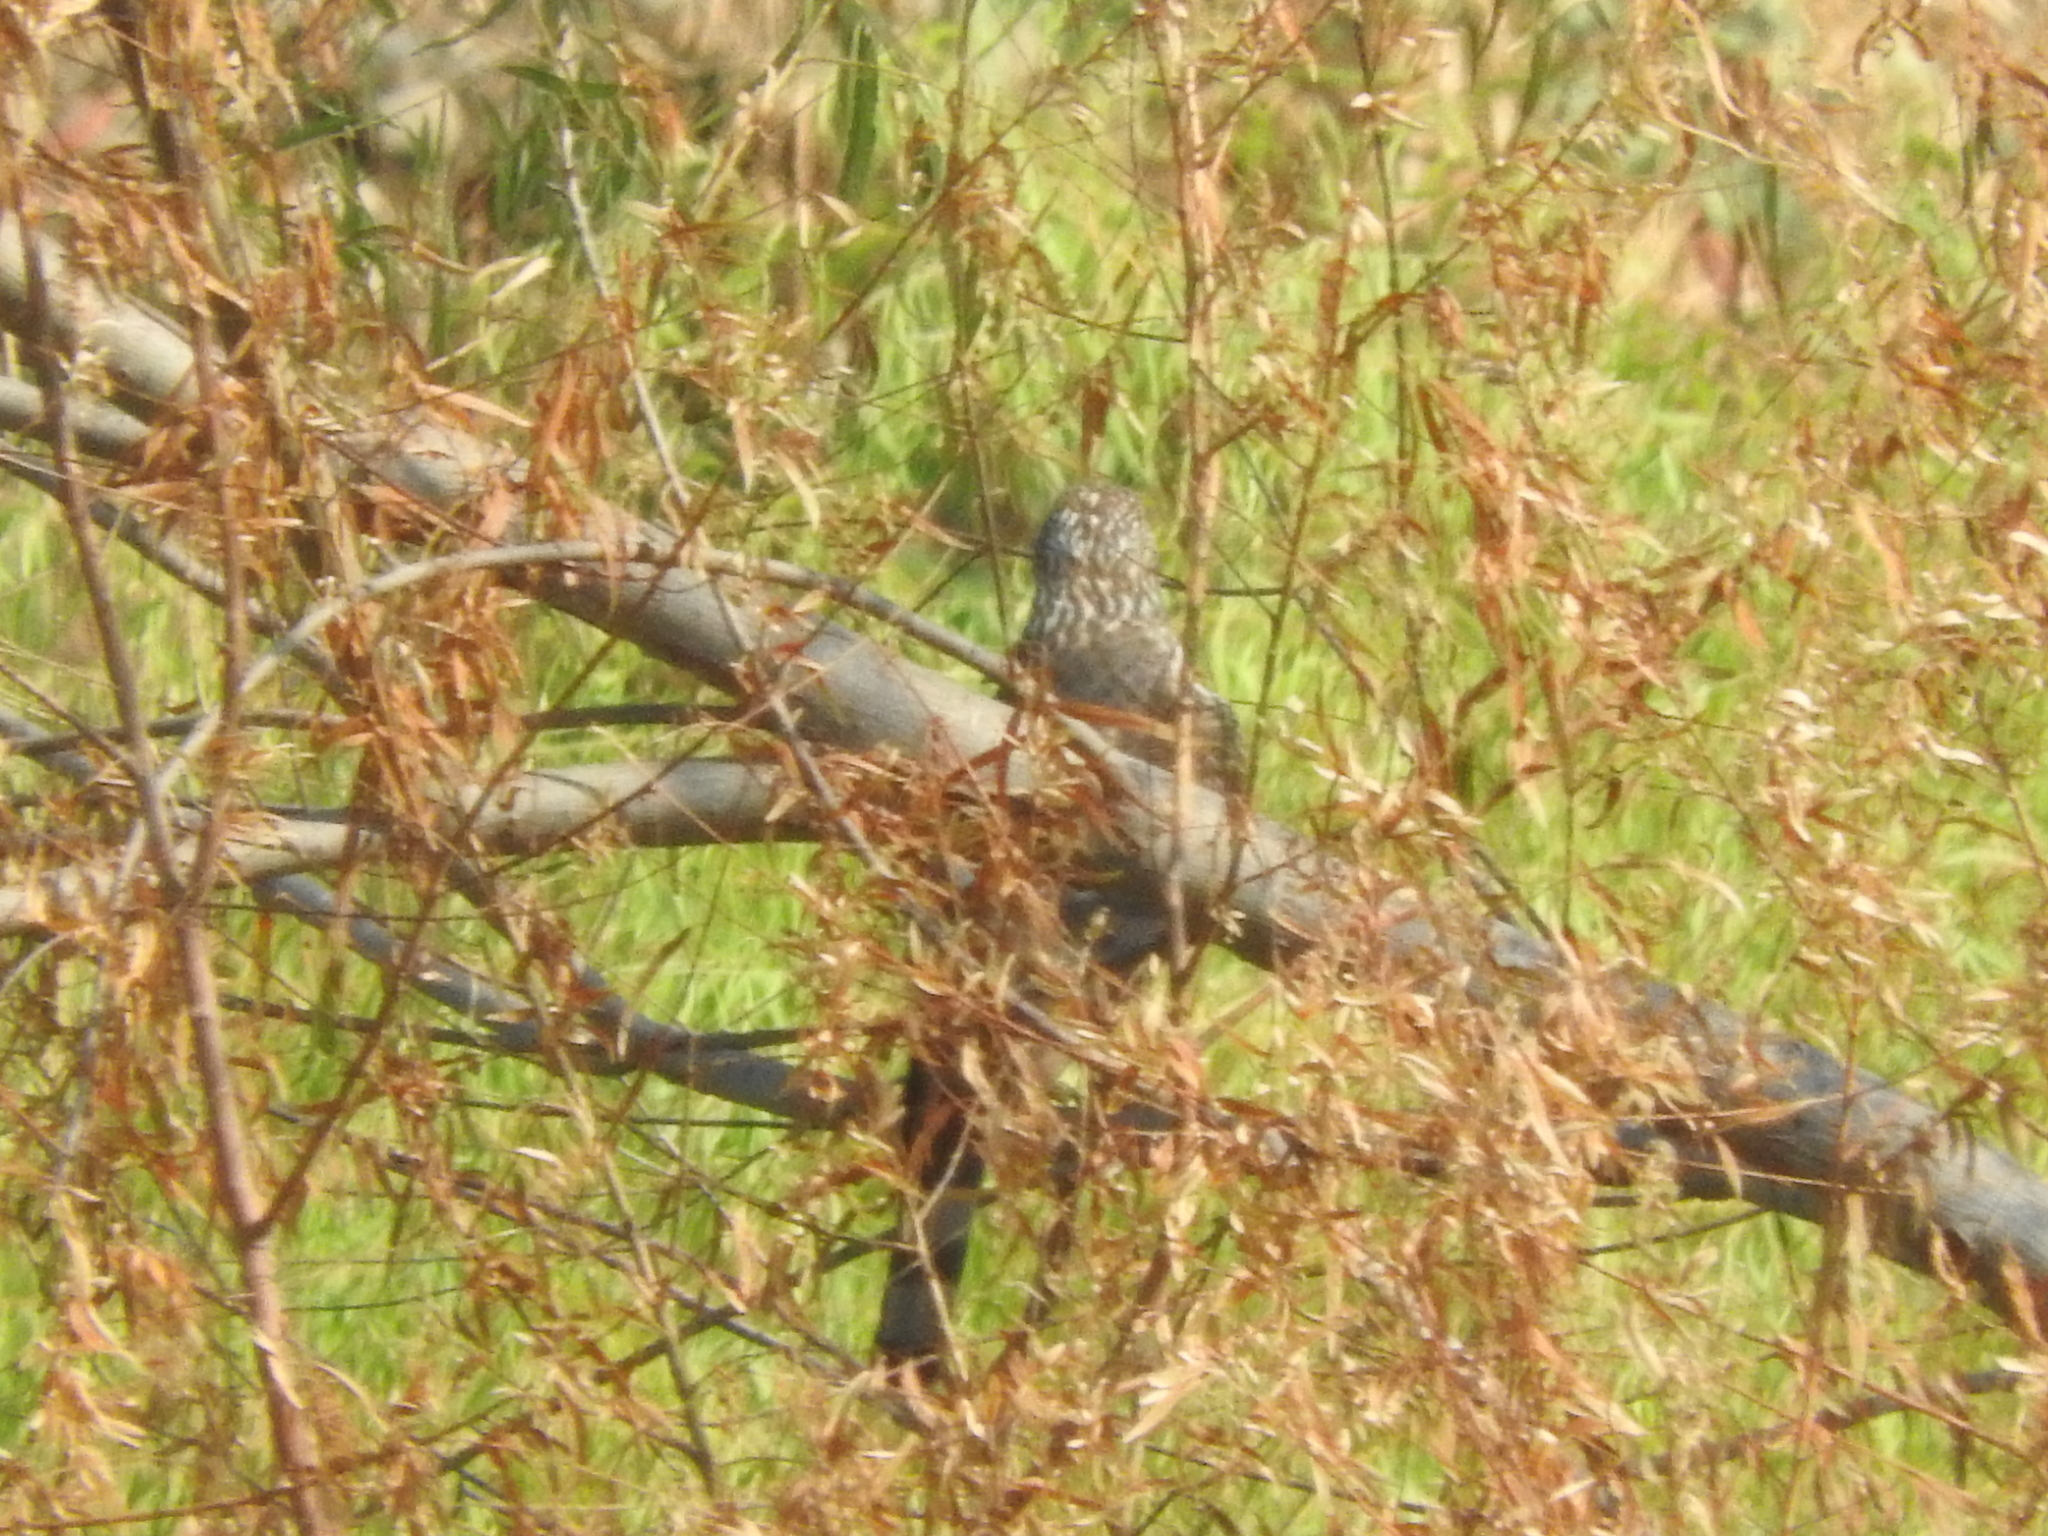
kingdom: Animalia
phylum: Chordata
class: Aves
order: Accipitriformes
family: Accipitridae
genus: Accipiter
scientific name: Accipiter cooperii
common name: Cooper's hawk
